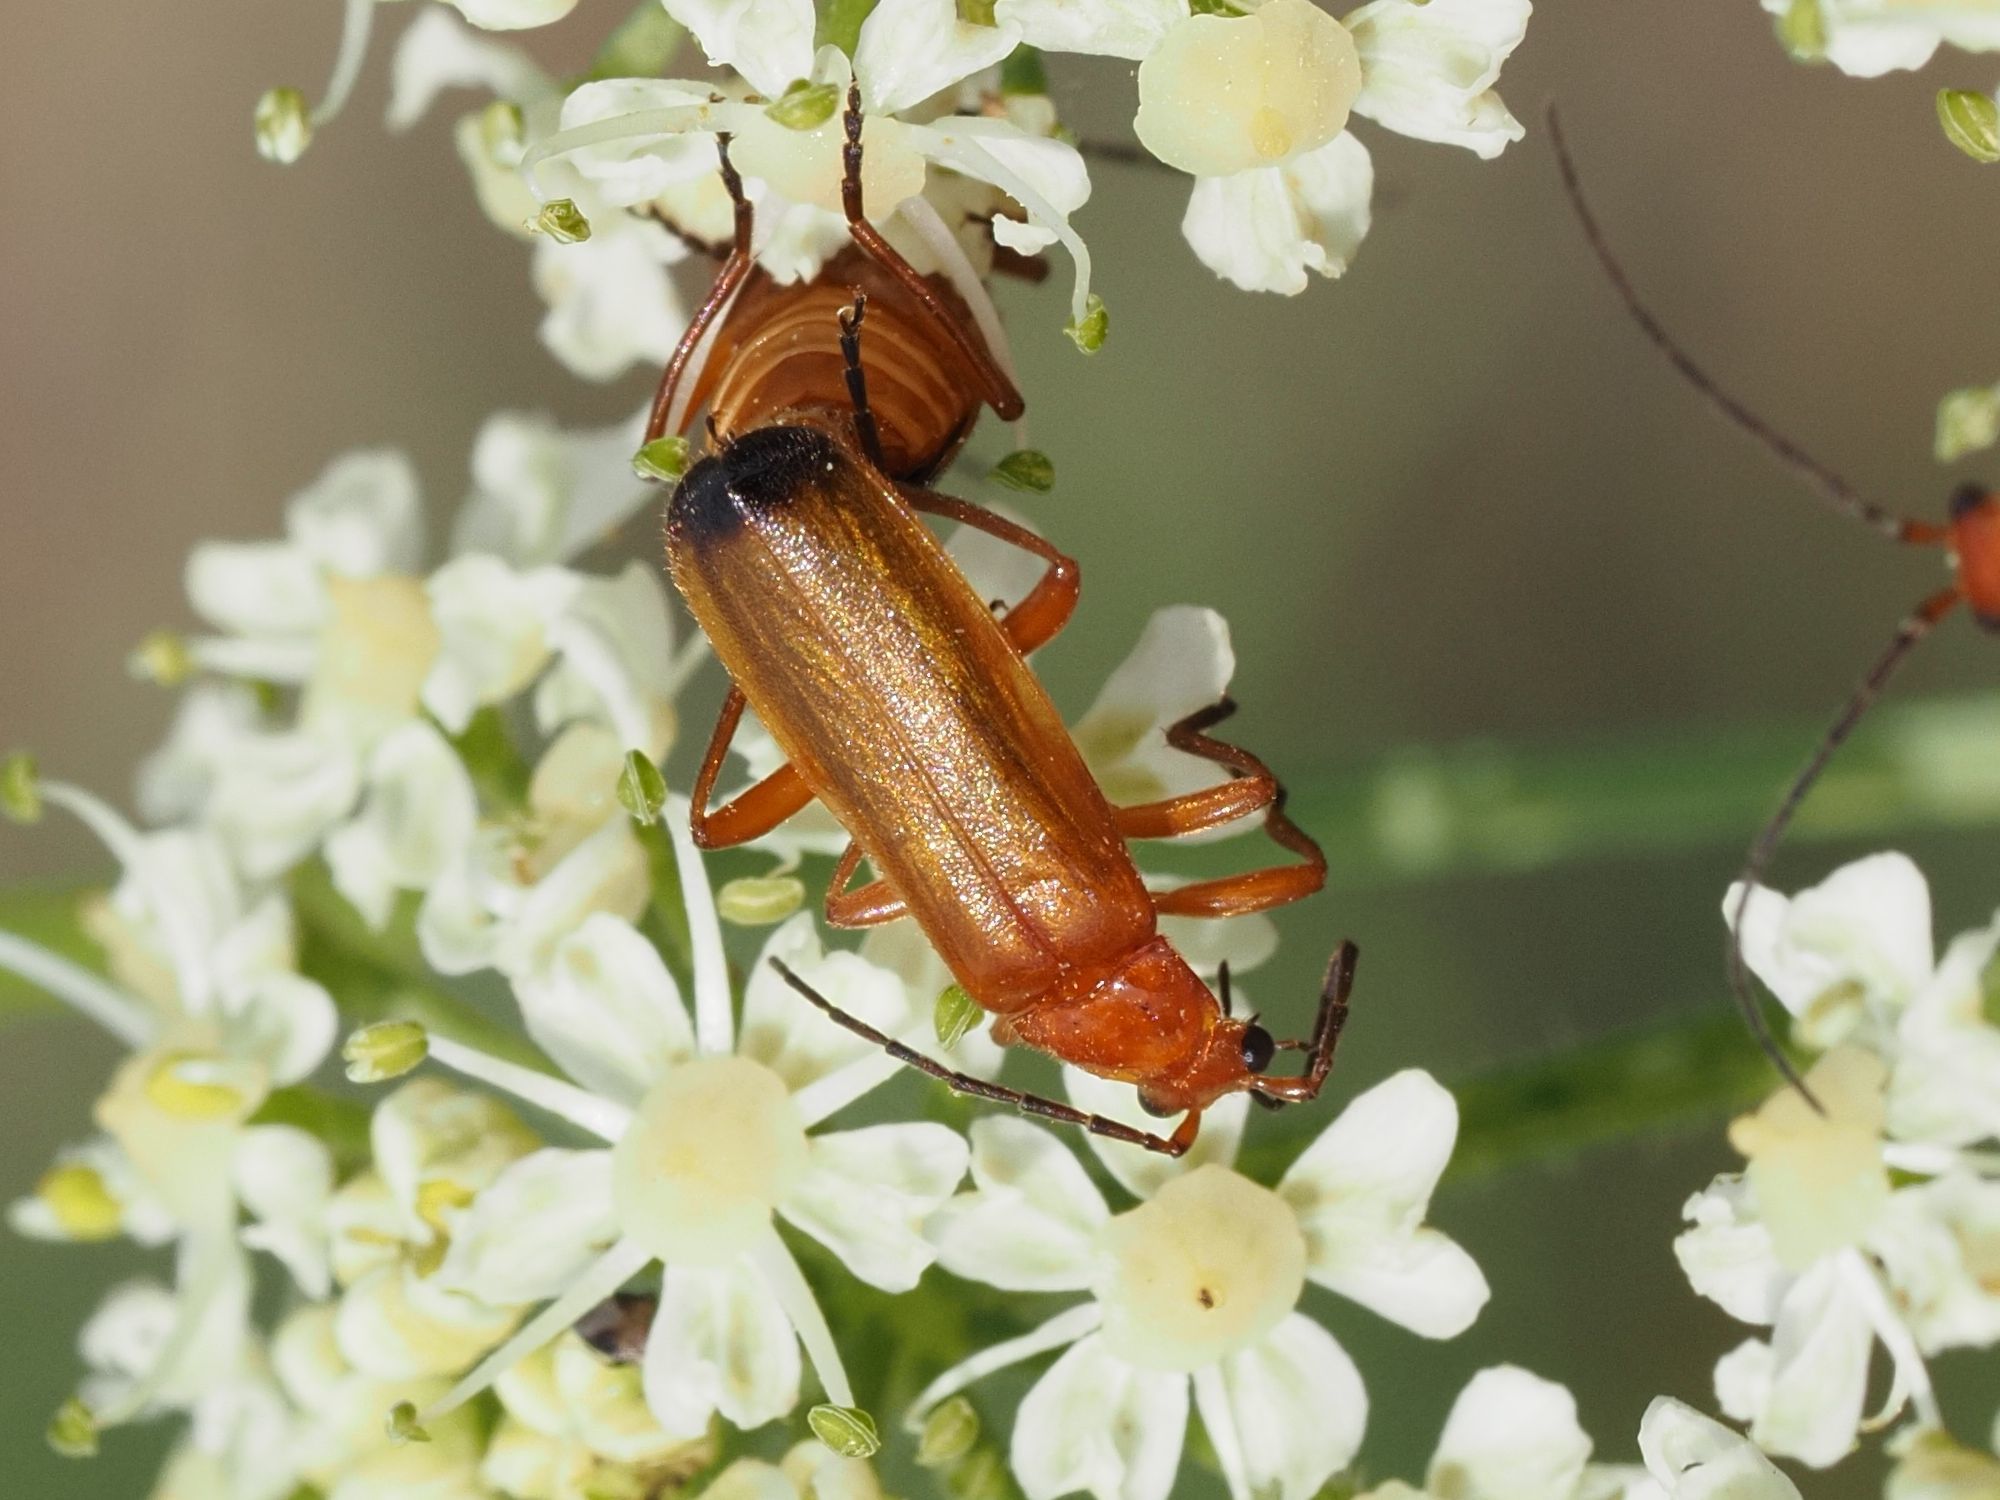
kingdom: Animalia
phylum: Arthropoda
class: Insecta
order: Coleoptera
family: Cantharidae
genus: Rhagonycha
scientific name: Rhagonycha fulva
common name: Common red soldier beetle
